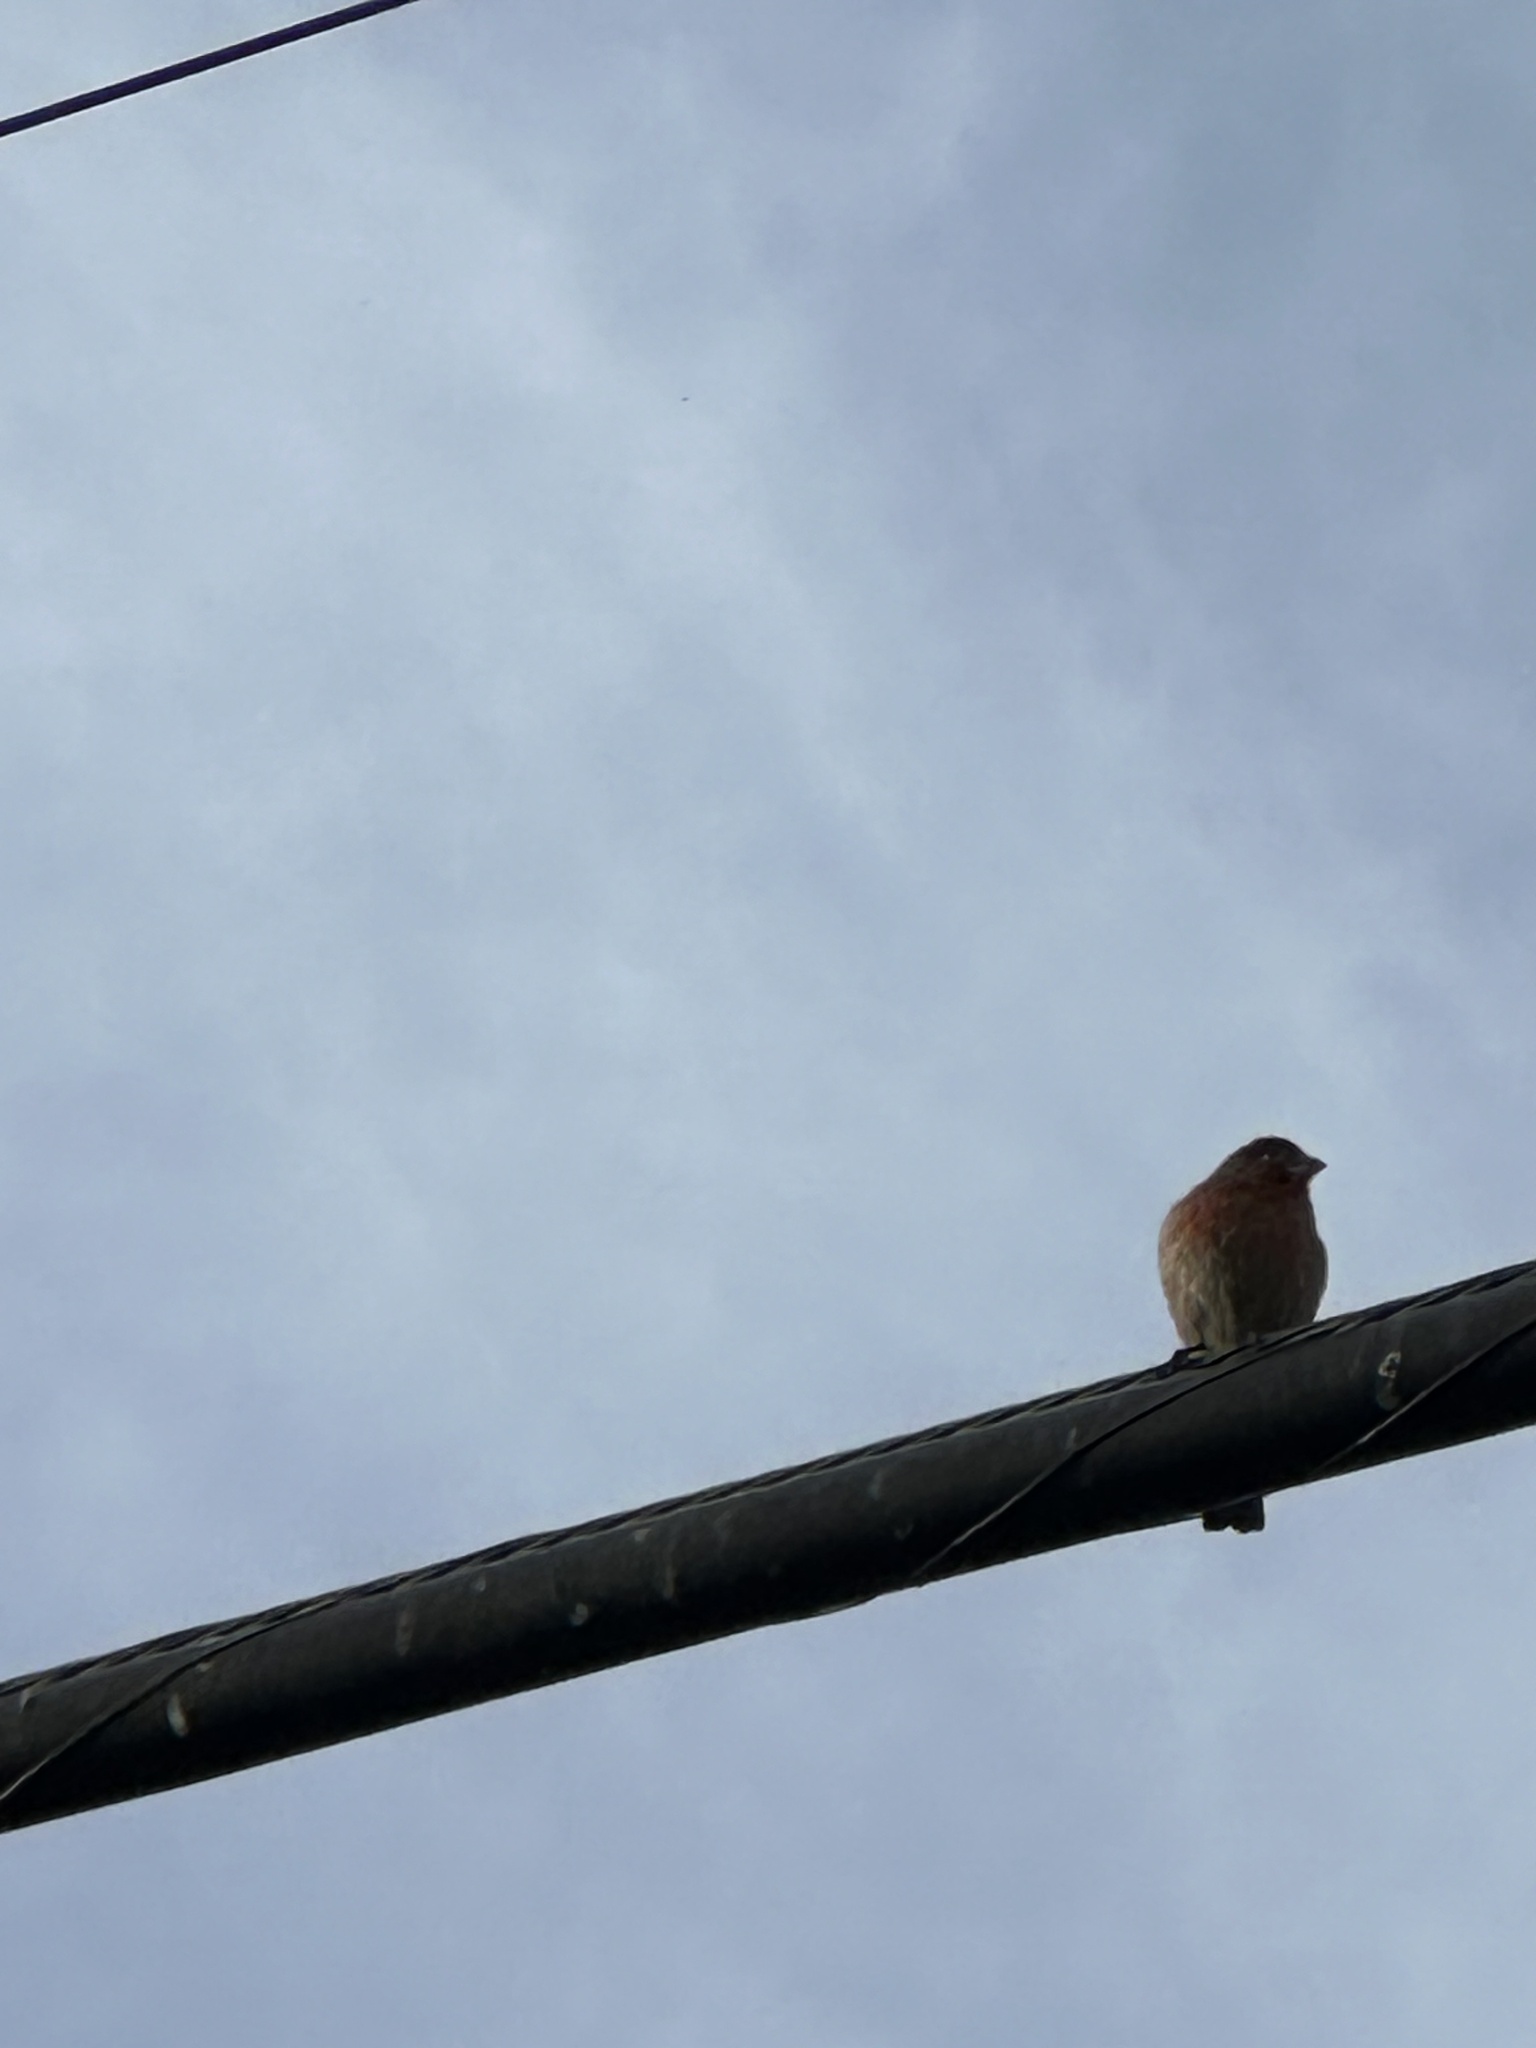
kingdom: Animalia
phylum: Chordata
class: Aves
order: Passeriformes
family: Fringillidae
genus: Haemorhous
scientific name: Haemorhous mexicanus
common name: House finch
